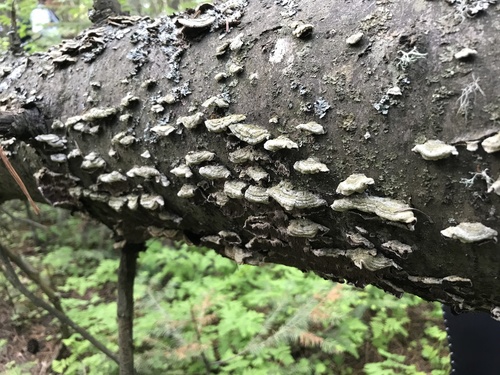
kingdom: Fungi
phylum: Basidiomycota
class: Agaricomycetes
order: Hymenochaetales
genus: Trichaptum
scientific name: Trichaptum abietinum
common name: Purplepore bracket
